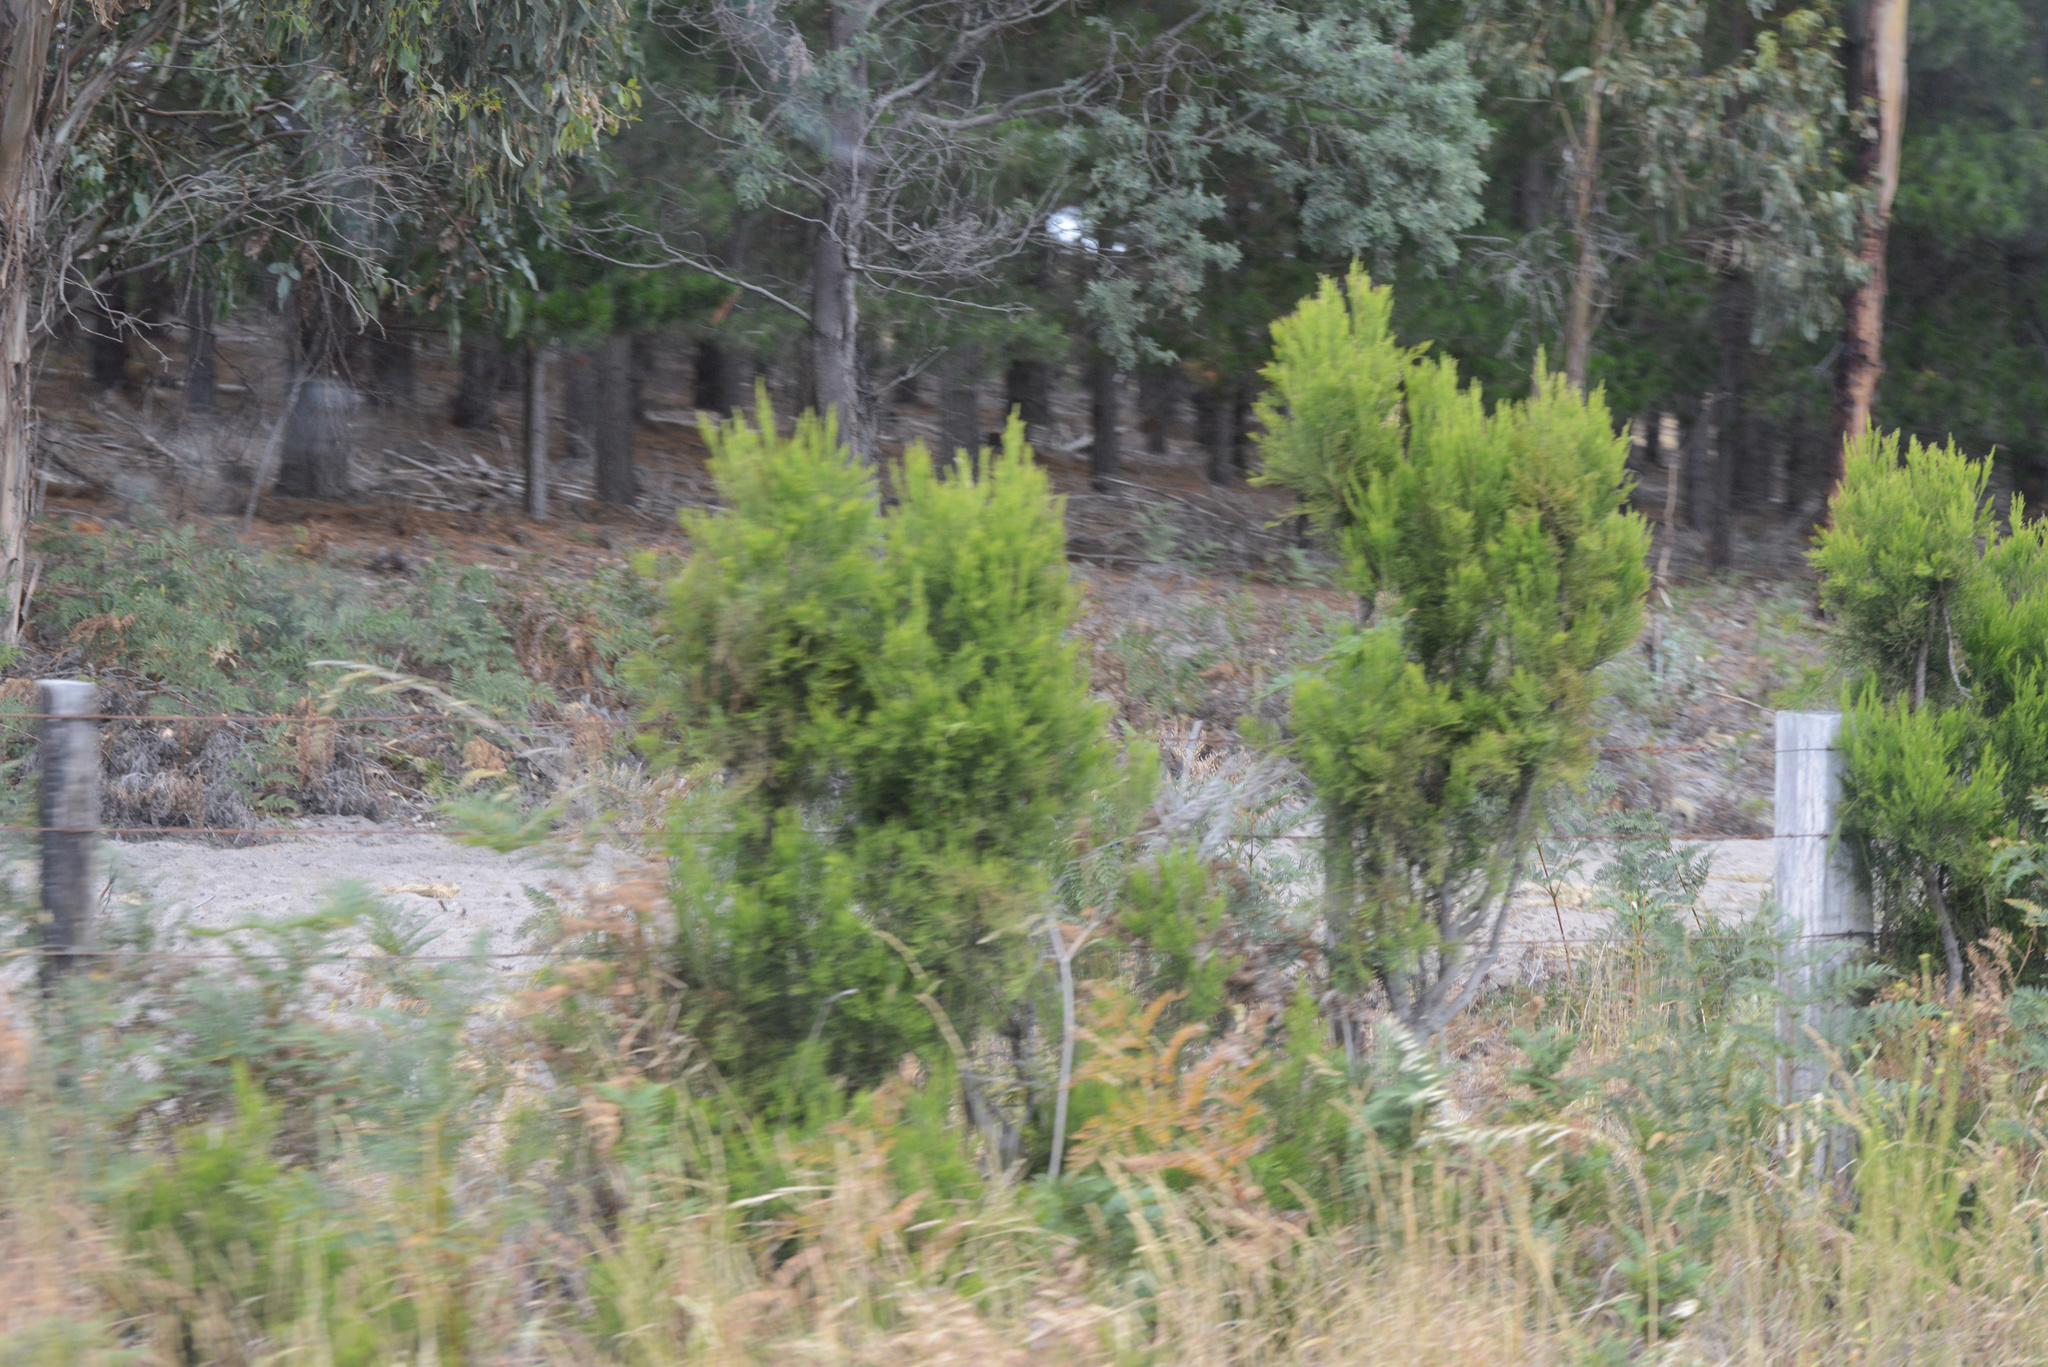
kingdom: Plantae
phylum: Tracheophyta
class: Magnoliopsida
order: Ericales
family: Ericaceae
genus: Erica
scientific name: Erica lusitanica
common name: Spanish heath
